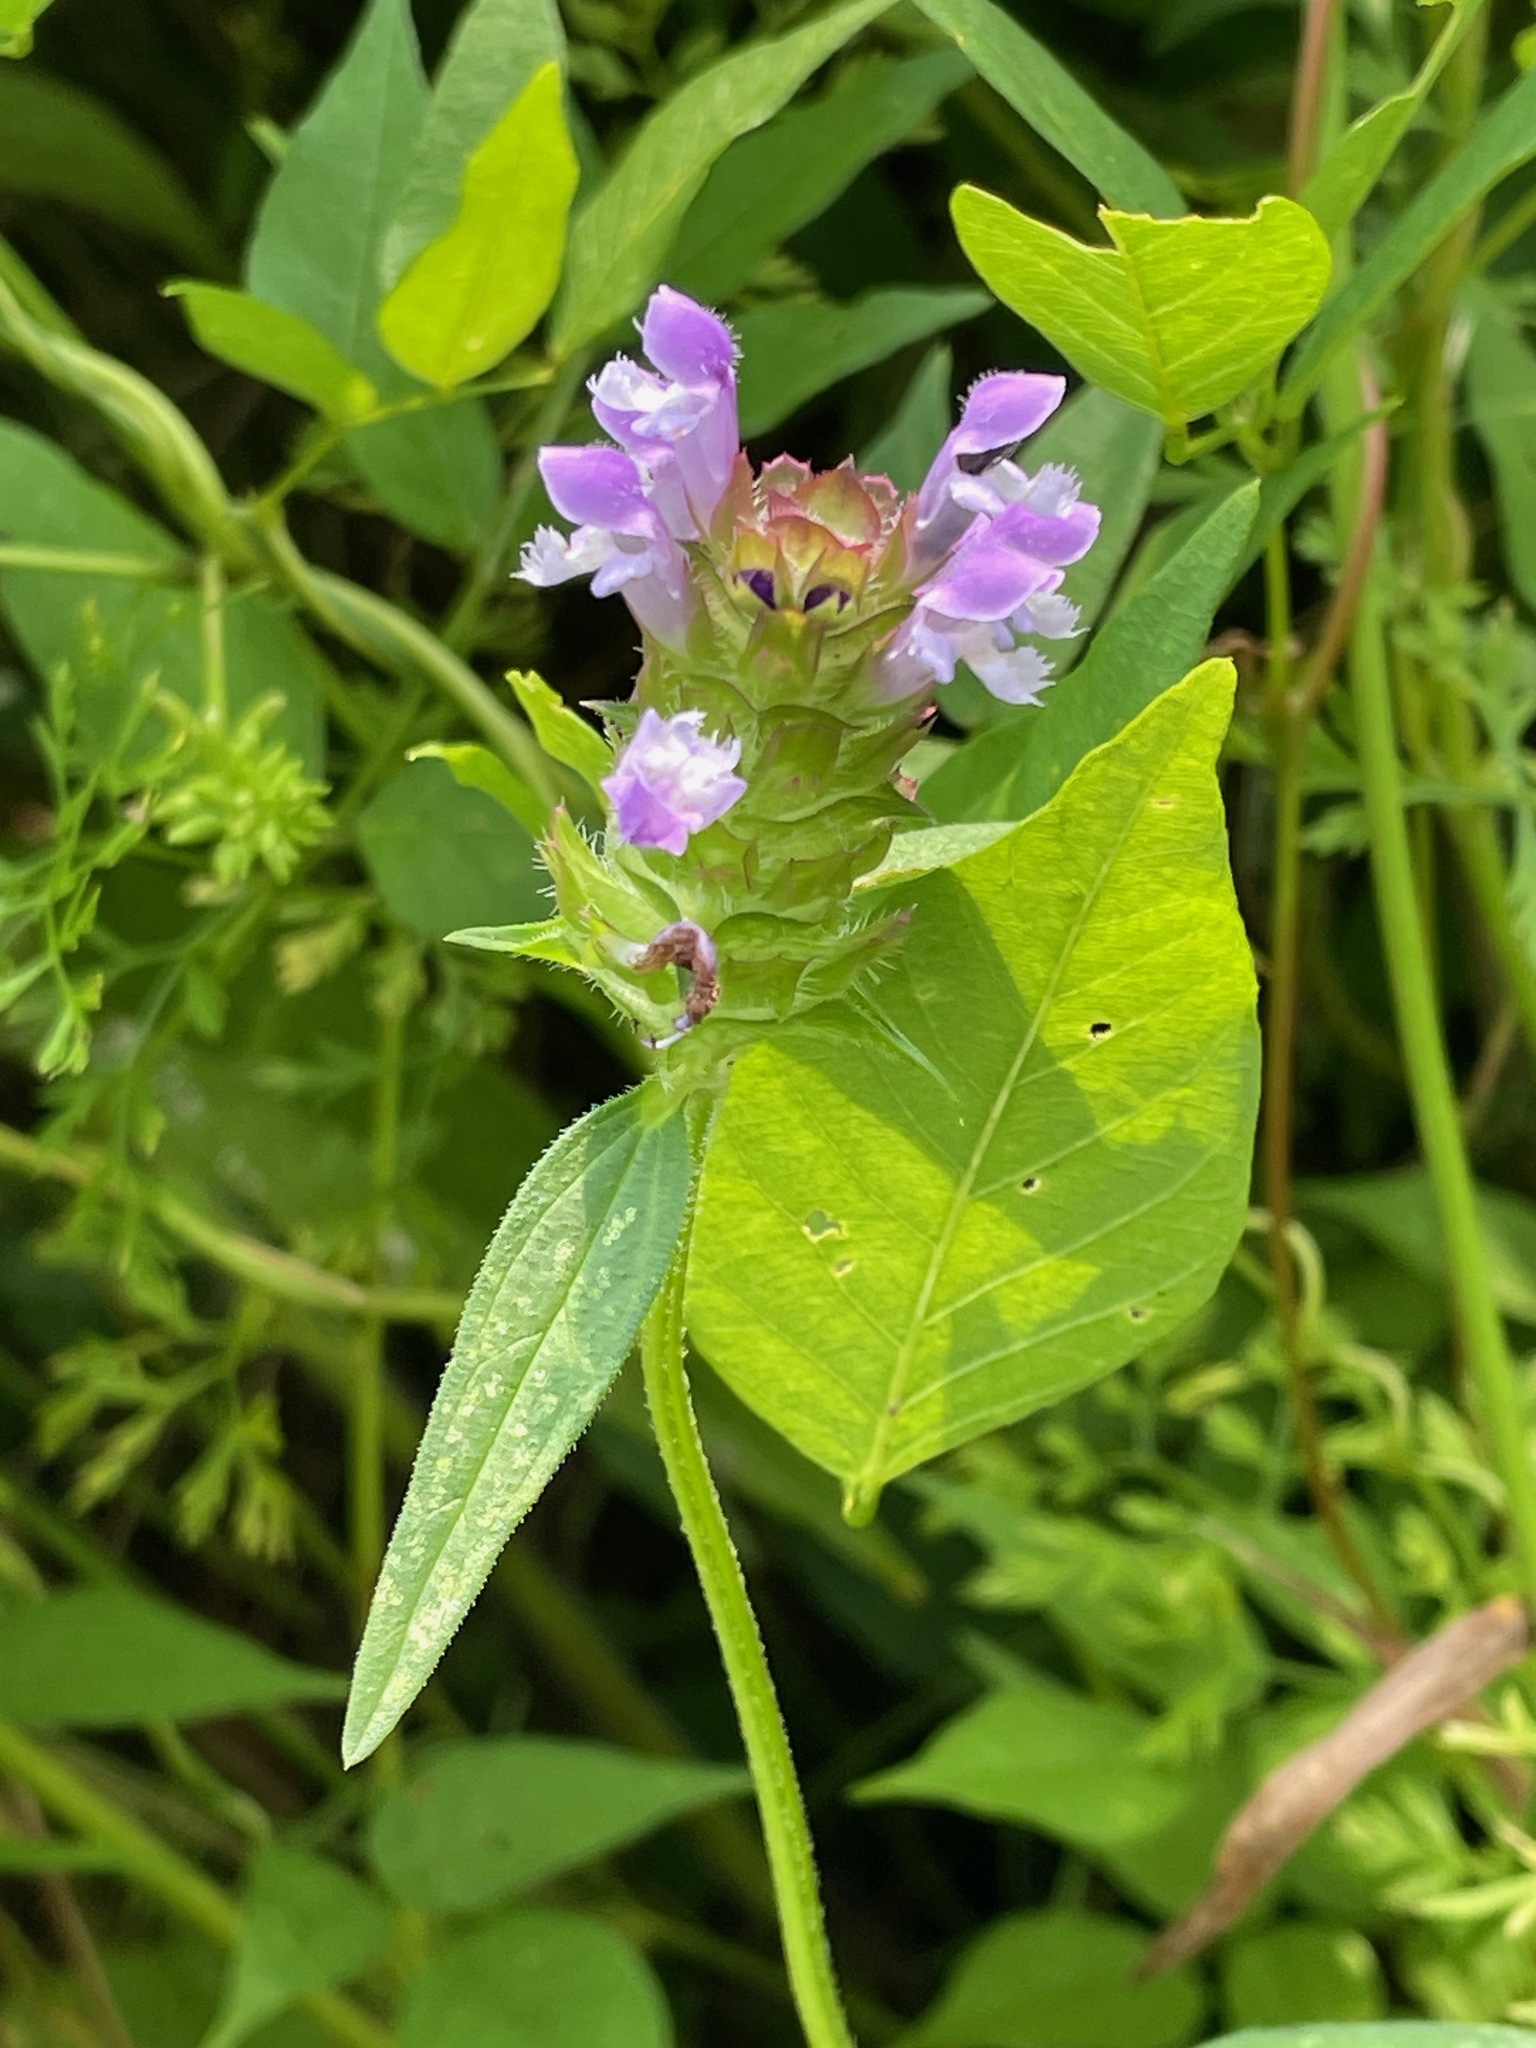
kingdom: Plantae
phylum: Tracheophyta
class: Magnoliopsida
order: Lamiales
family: Lamiaceae
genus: Prunella
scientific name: Prunella vulgaris
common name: Heal-all
